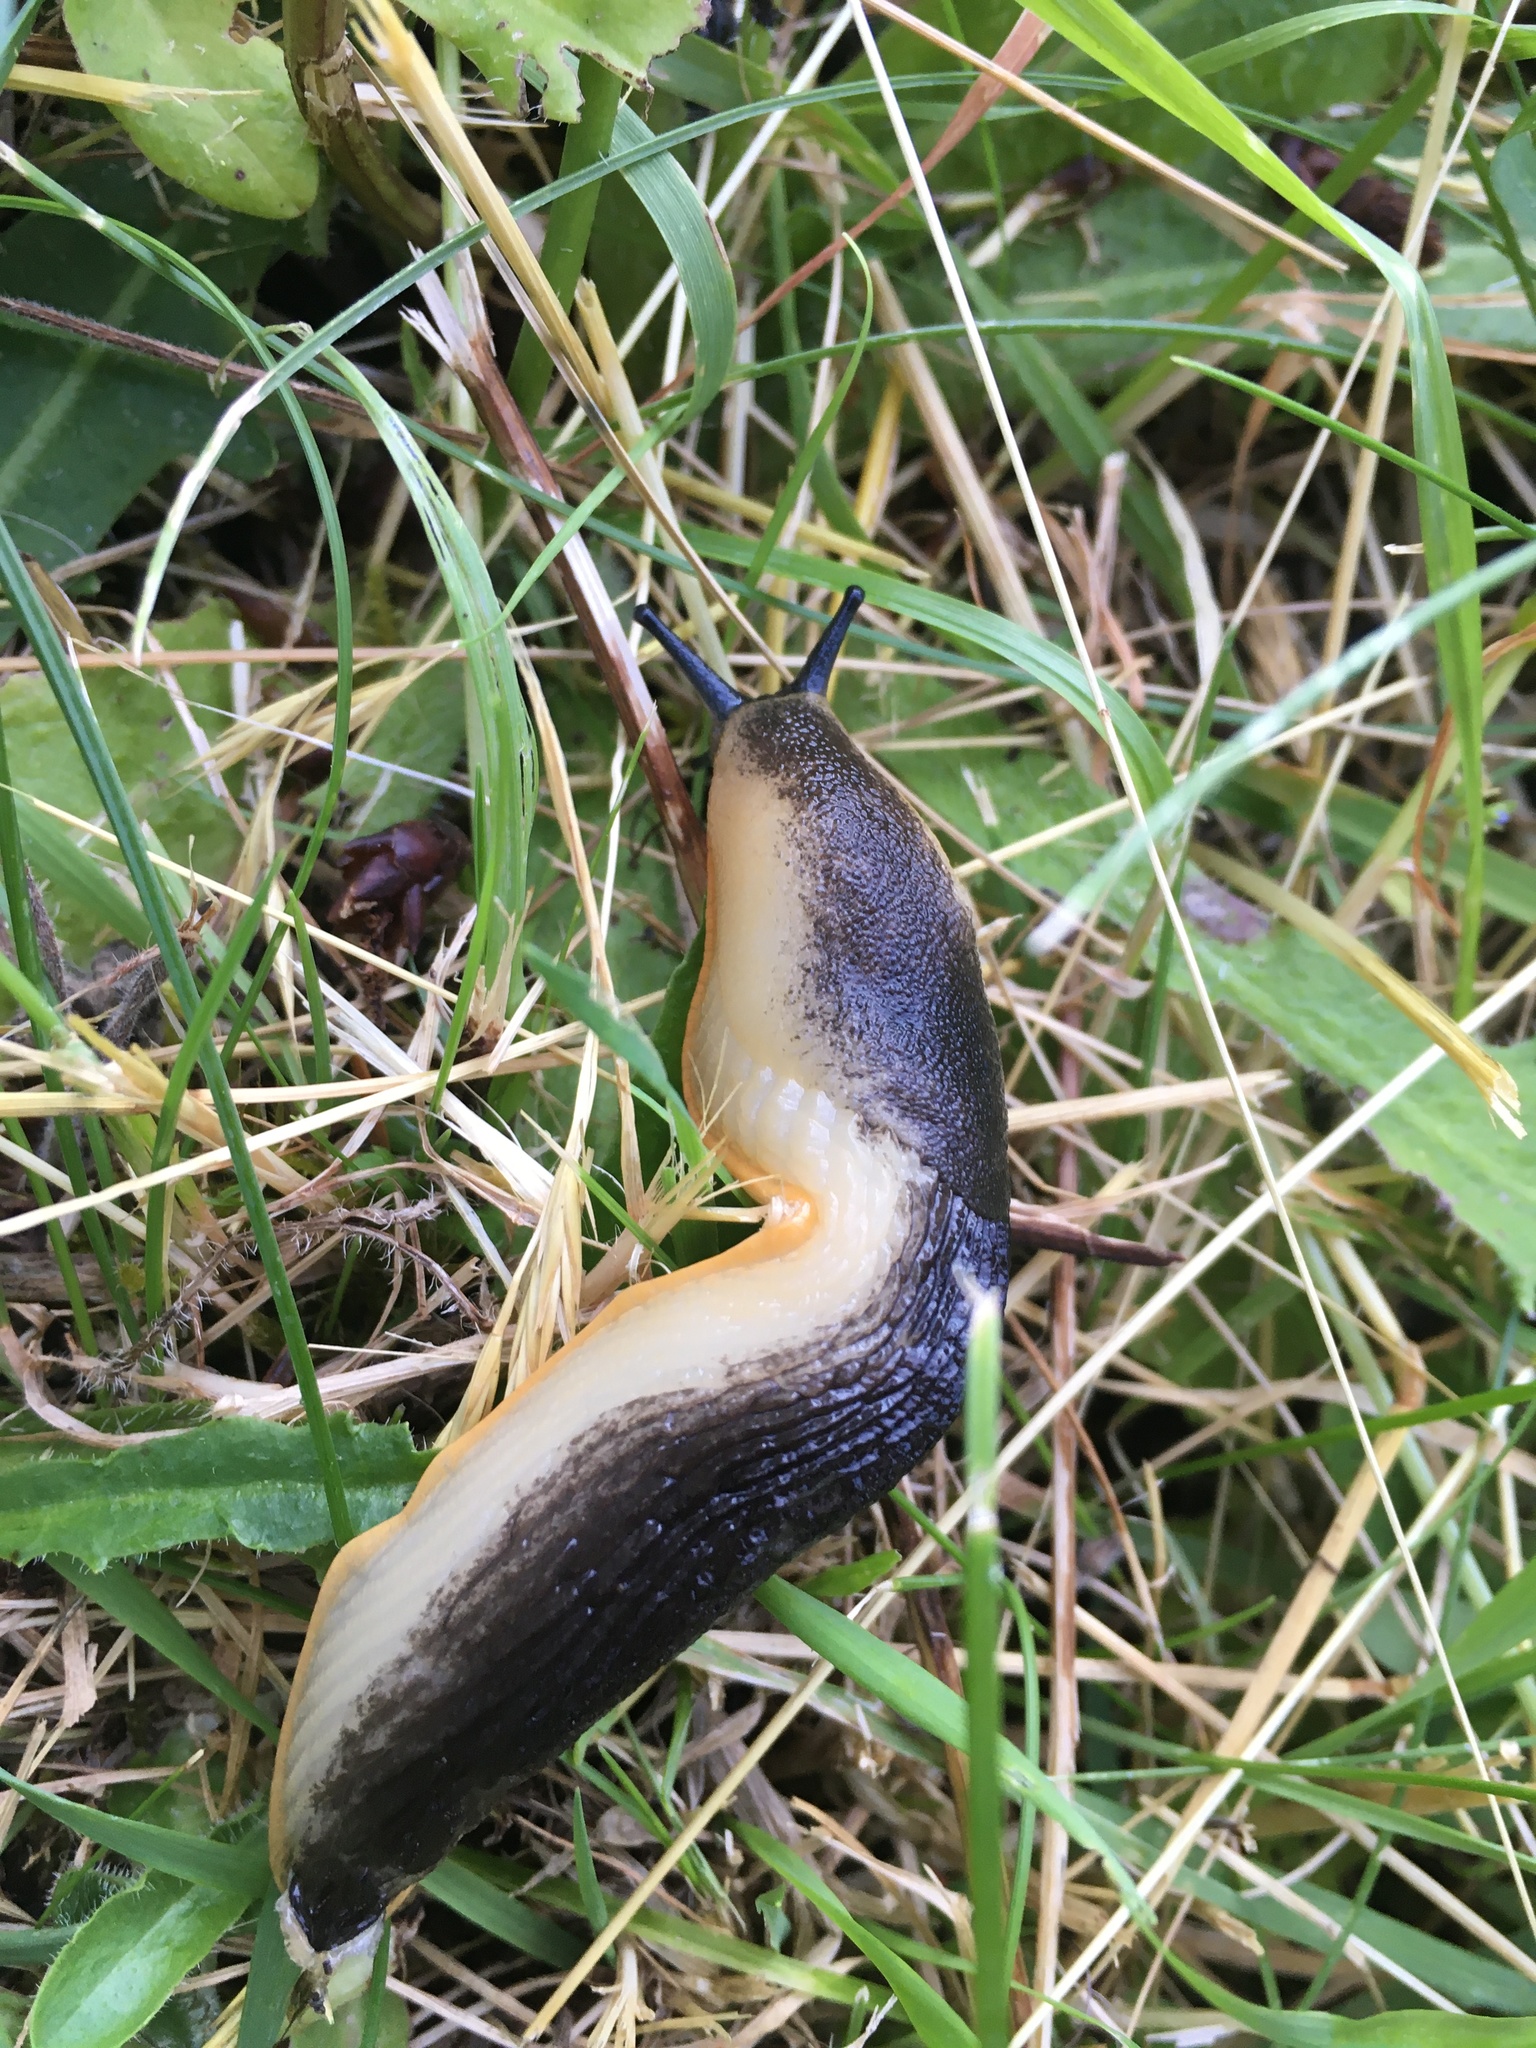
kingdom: Animalia
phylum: Mollusca
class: Gastropoda
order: Stylommatophora
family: Arionidae
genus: Arion
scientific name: Arion
